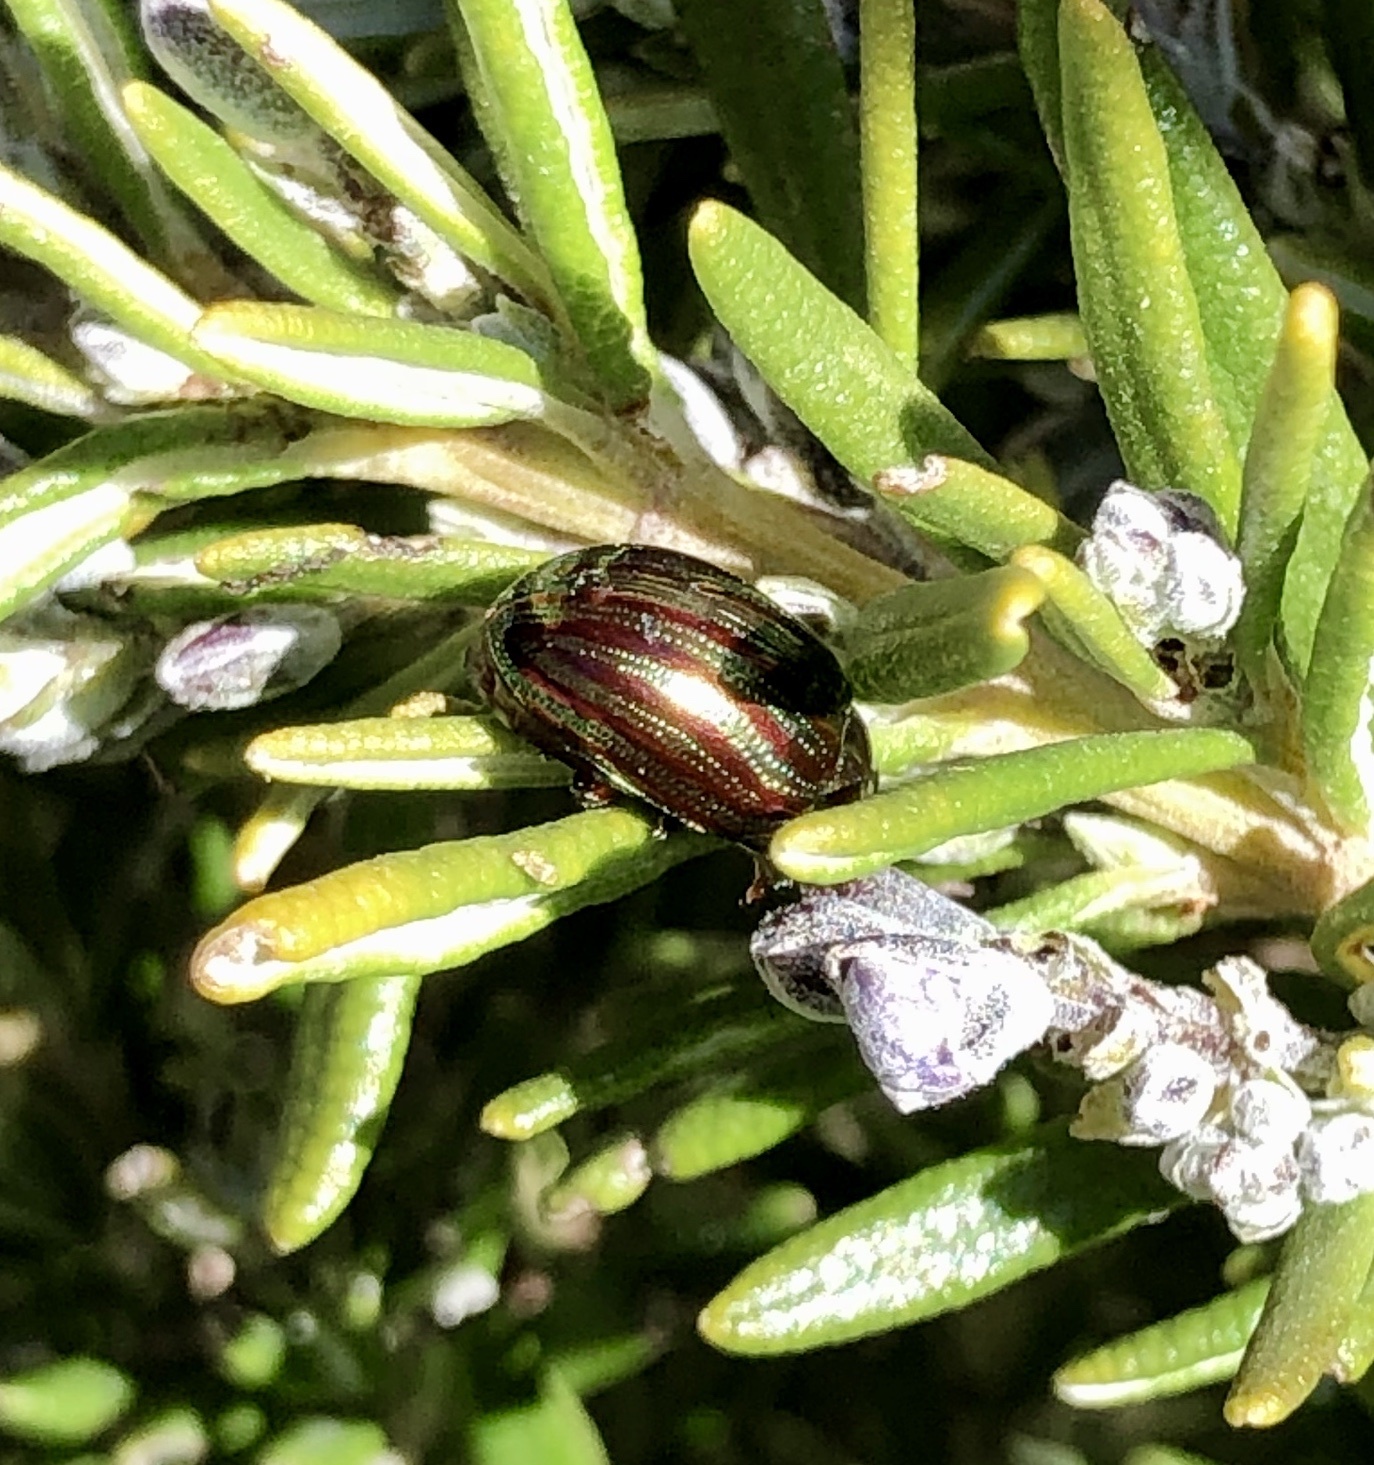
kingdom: Animalia
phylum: Arthropoda
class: Insecta
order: Coleoptera
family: Chrysomelidae
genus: Chrysolina
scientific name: Chrysolina americana
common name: Rosemary beetle
